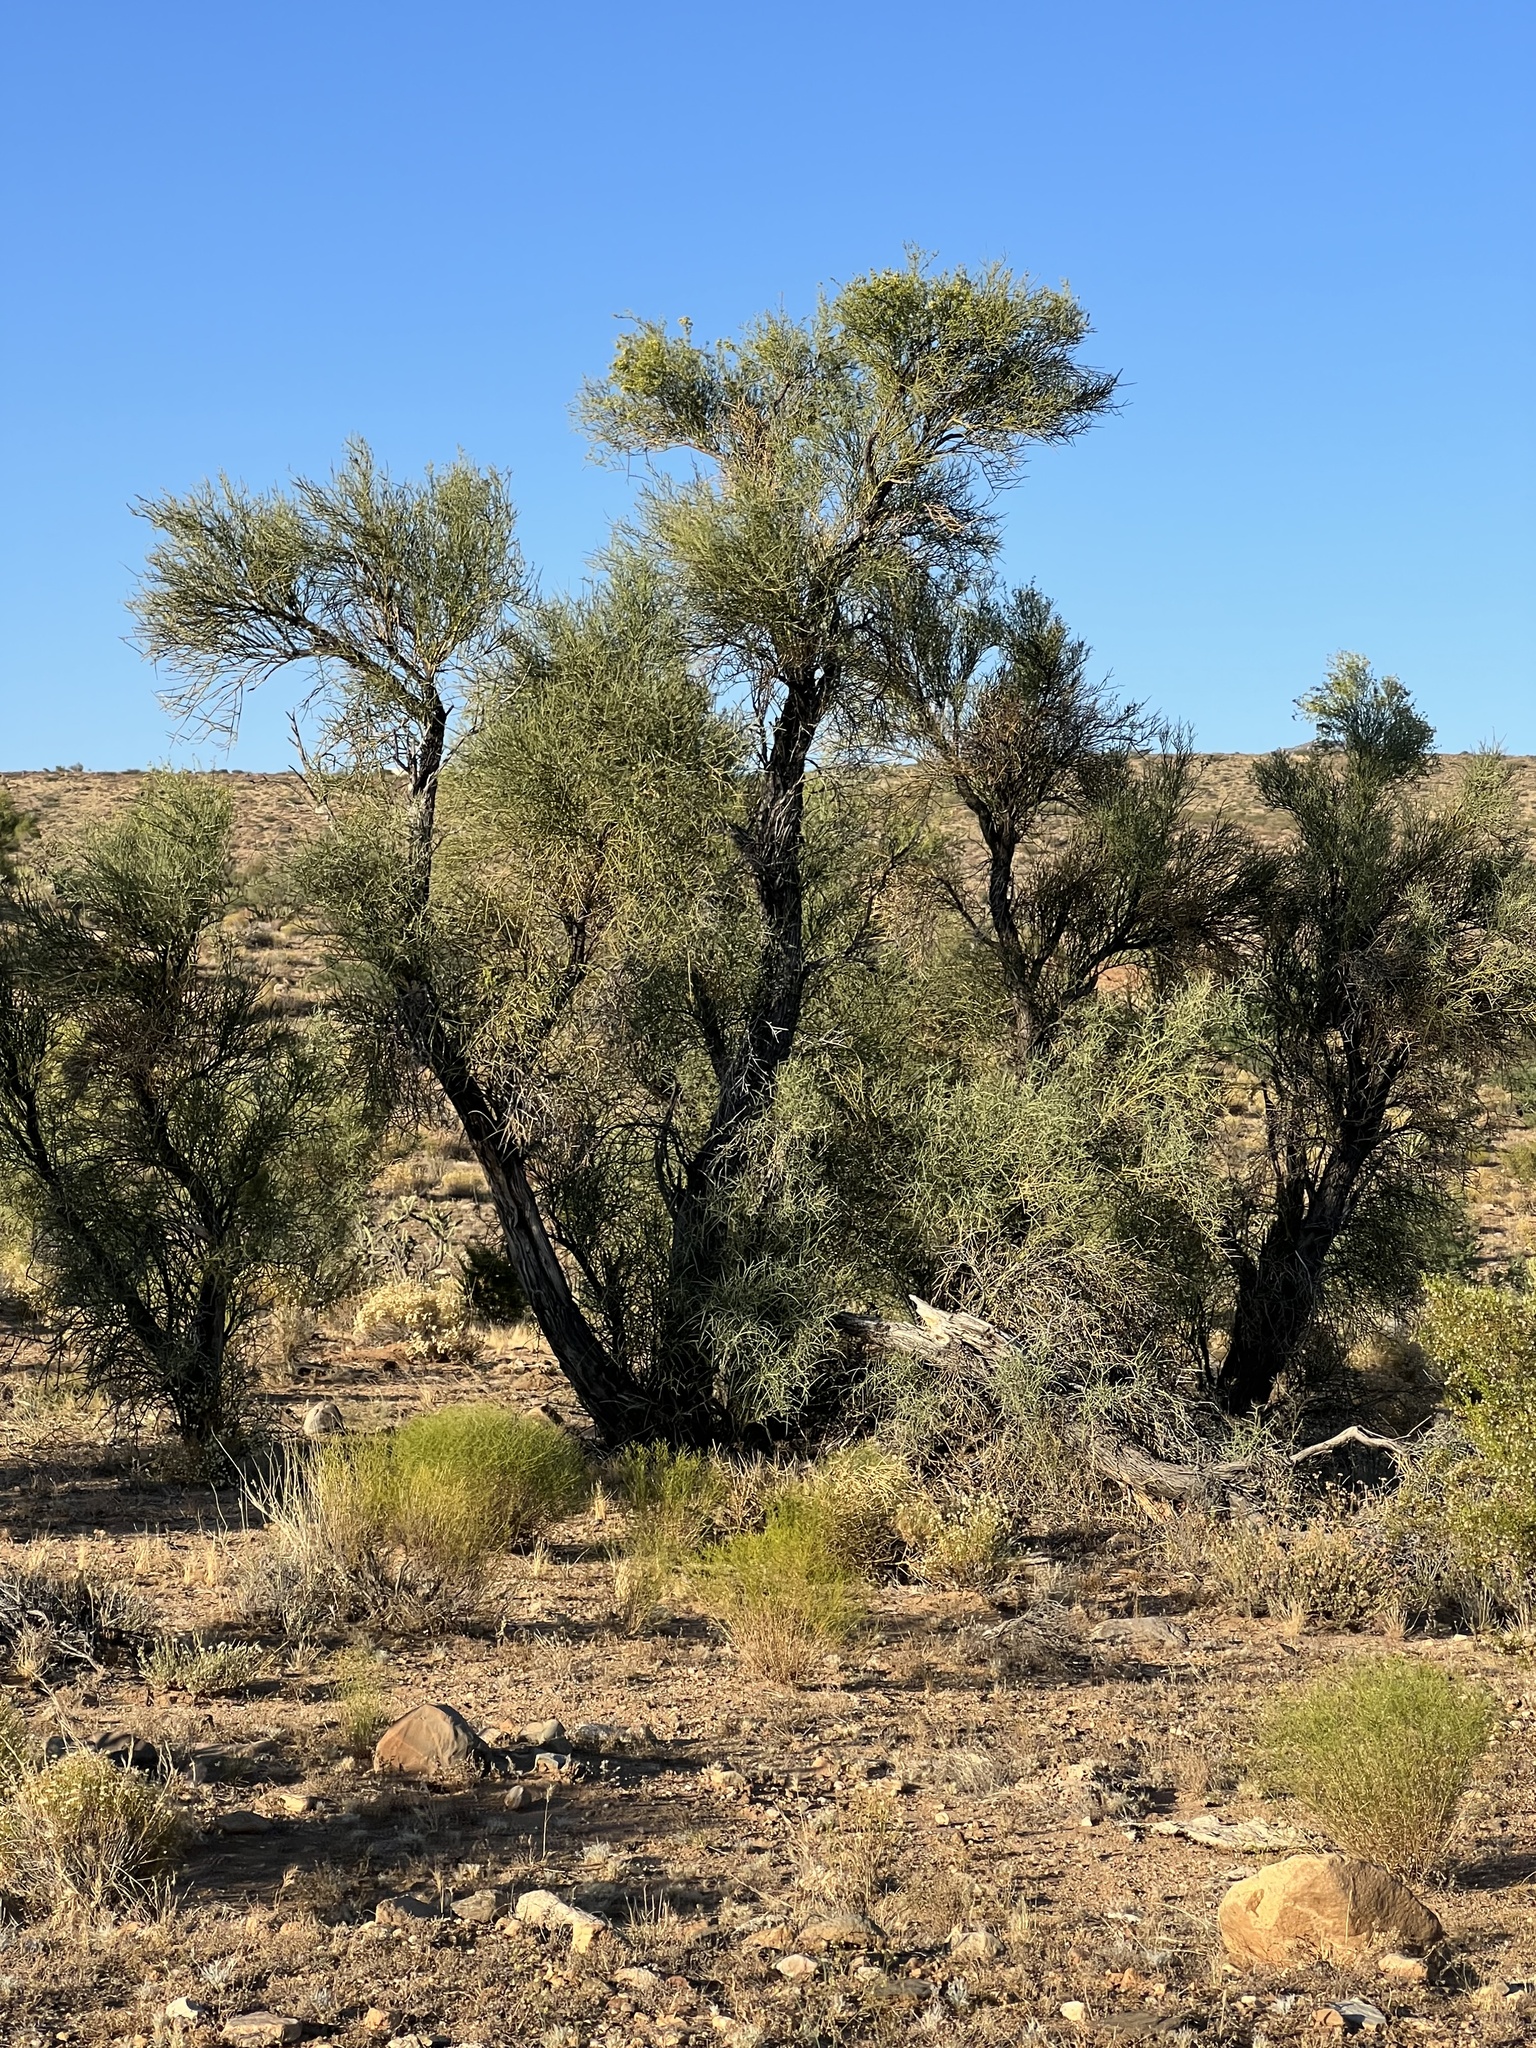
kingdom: Plantae
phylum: Tracheophyta
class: Magnoliopsida
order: Celastrales
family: Celastraceae
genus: Canotia
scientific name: Canotia holacantha
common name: Crucifixion thorns
